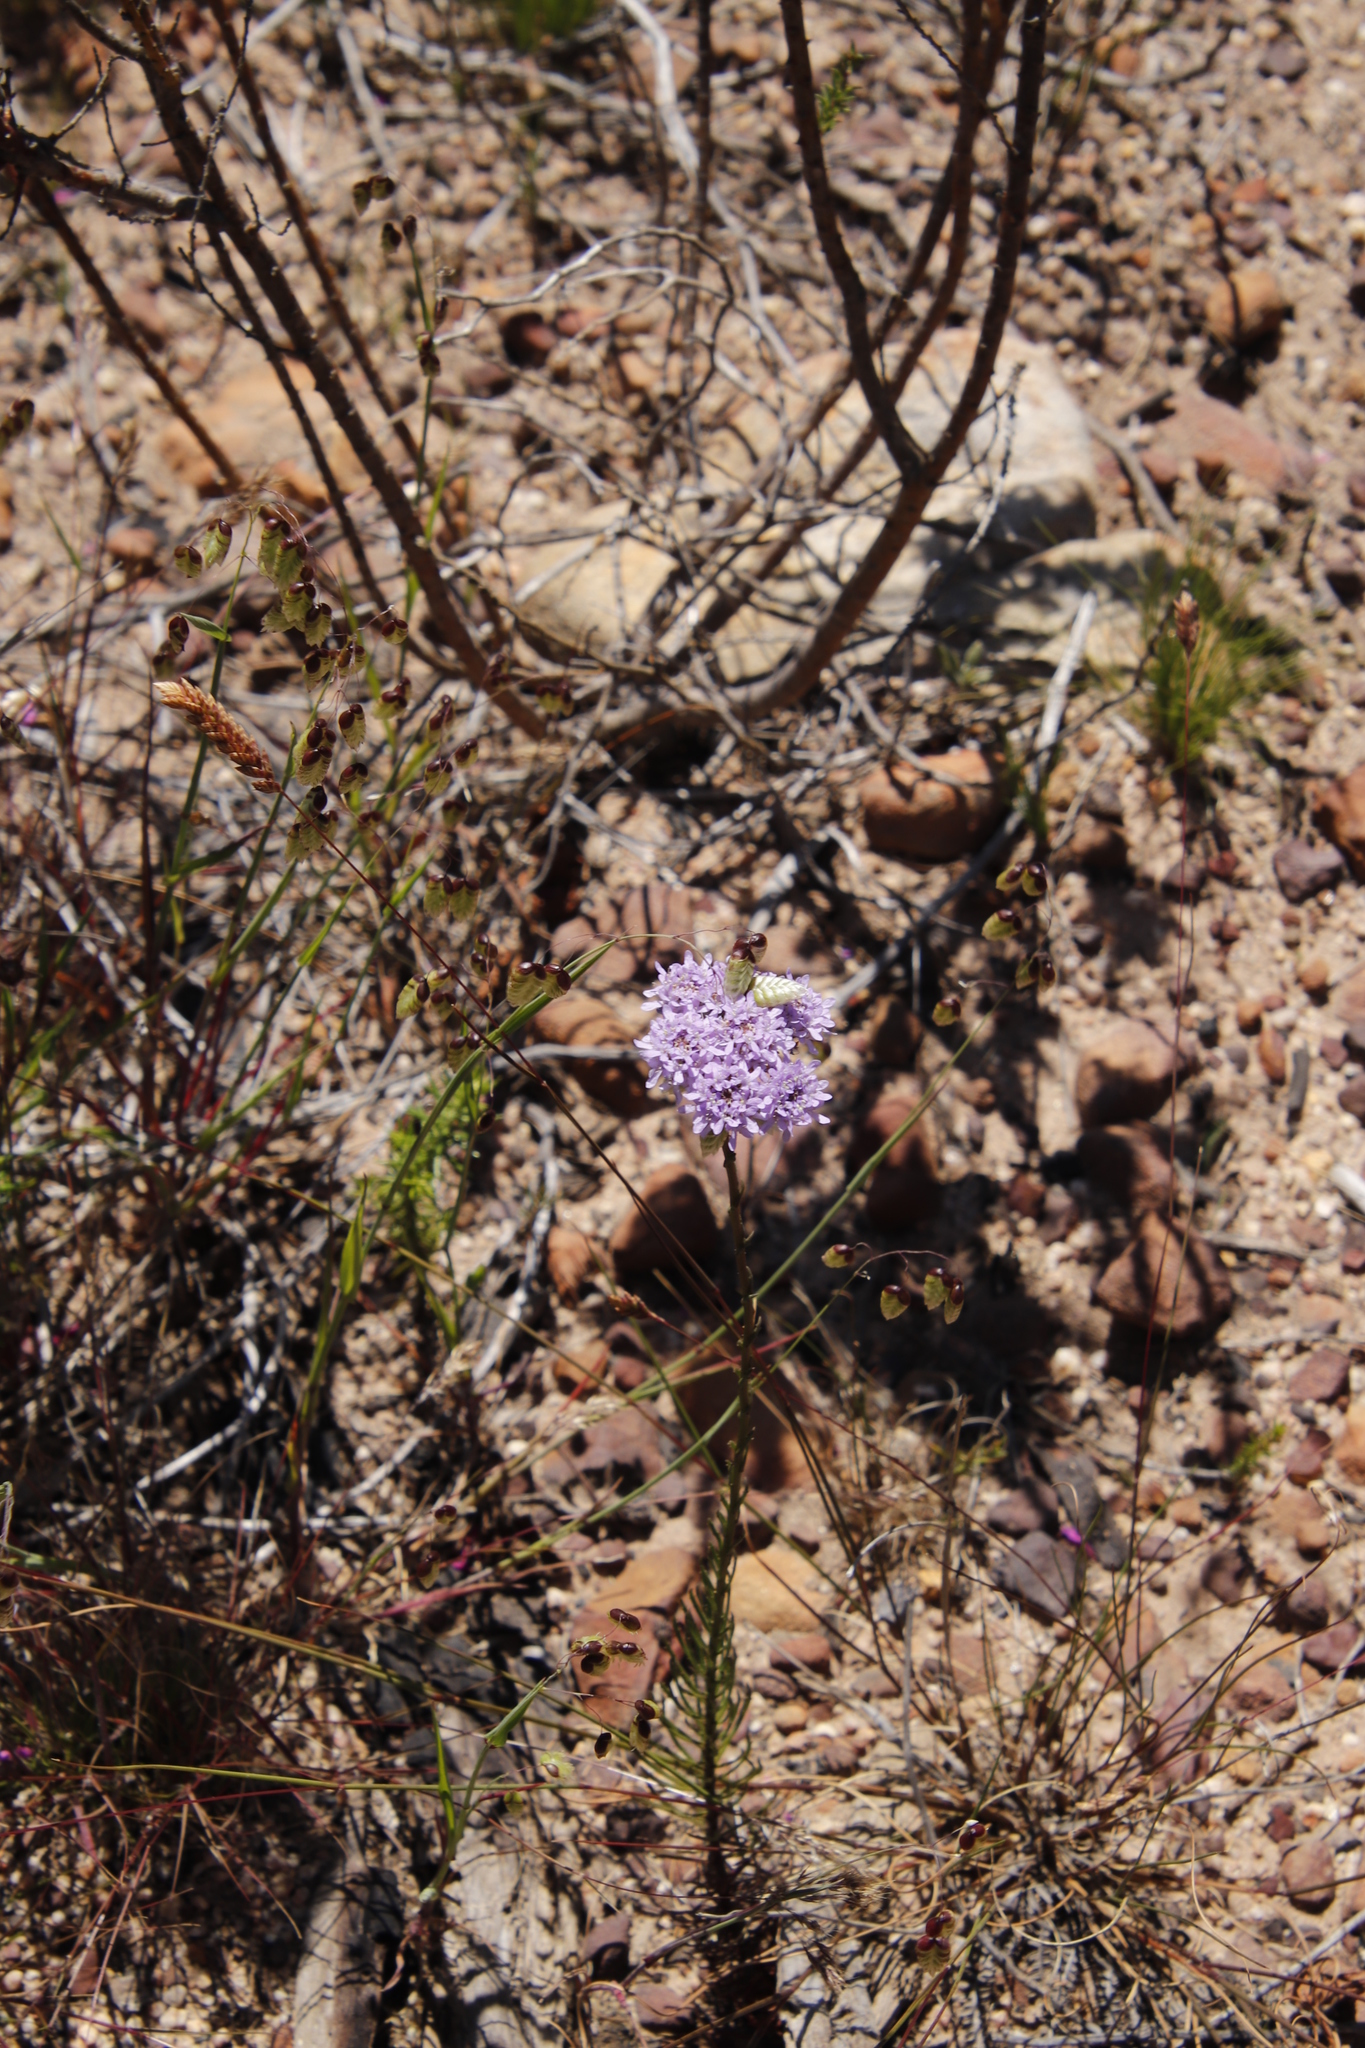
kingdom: Plantae
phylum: Tracheophyta
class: Magnoliopsida
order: Lamiales
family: Scrophulariaceae
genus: Pseudoselago
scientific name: Pseudoselago spuria
